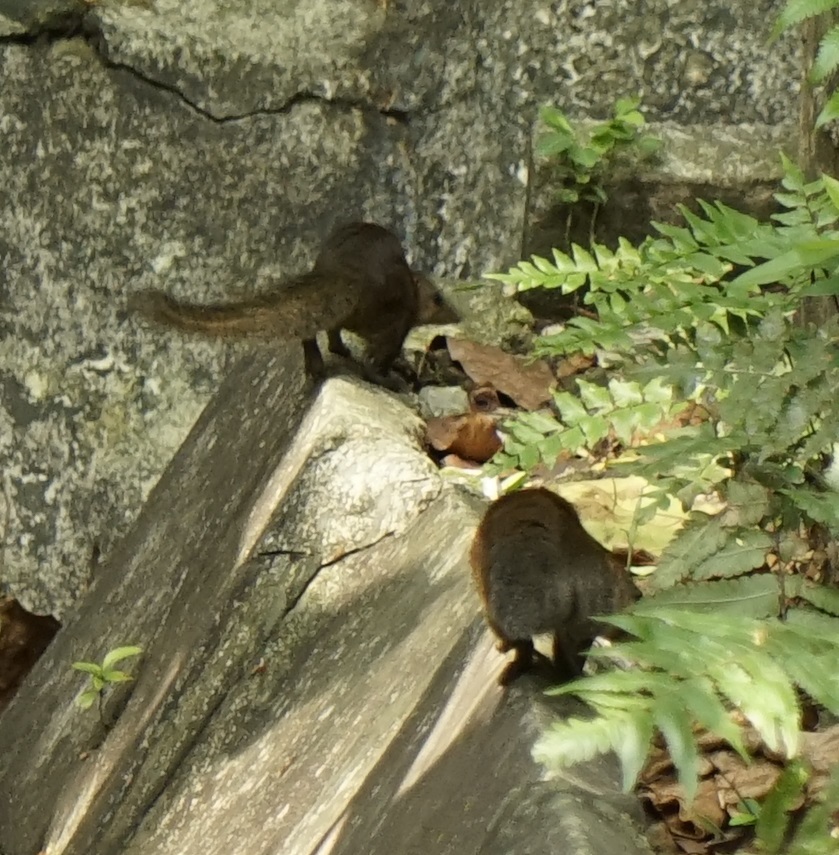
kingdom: Animalia
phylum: Chordata
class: Mammalia
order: Scandentia
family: Tupaiidae
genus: Tupaia
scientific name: Tupaia glis
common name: Common treeshrew
